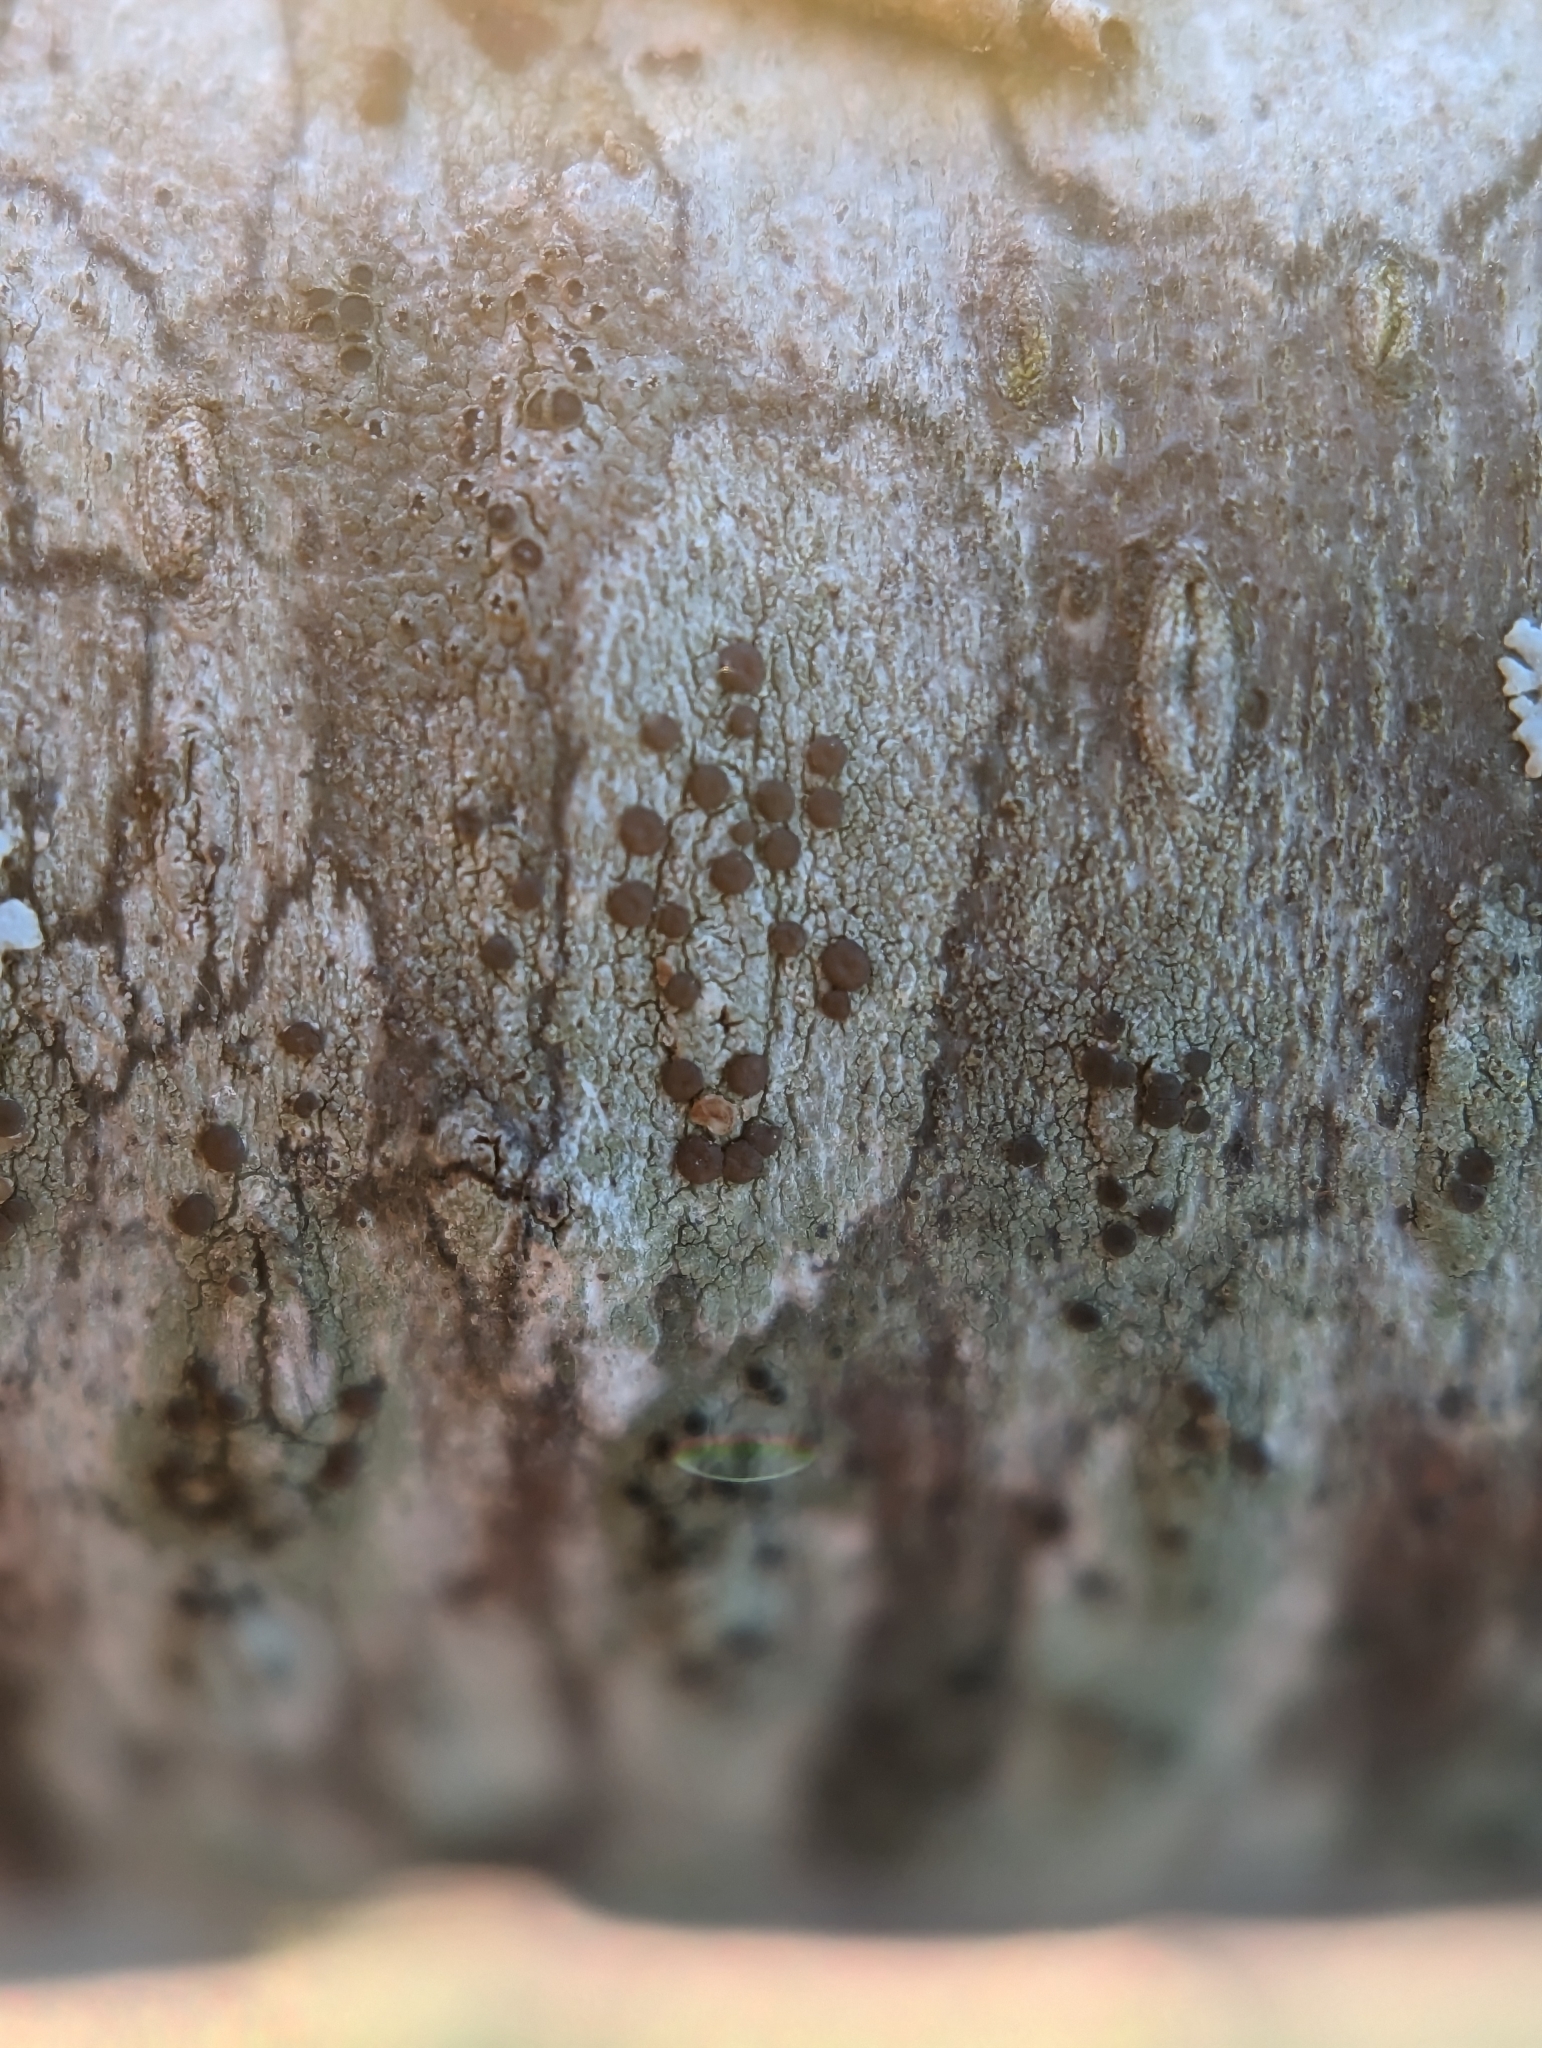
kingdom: Fungi
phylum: Ascomycota
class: Lecanoromycetes
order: Lecanorales
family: Lecanoraceae
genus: Traponora
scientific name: Traponora varians
